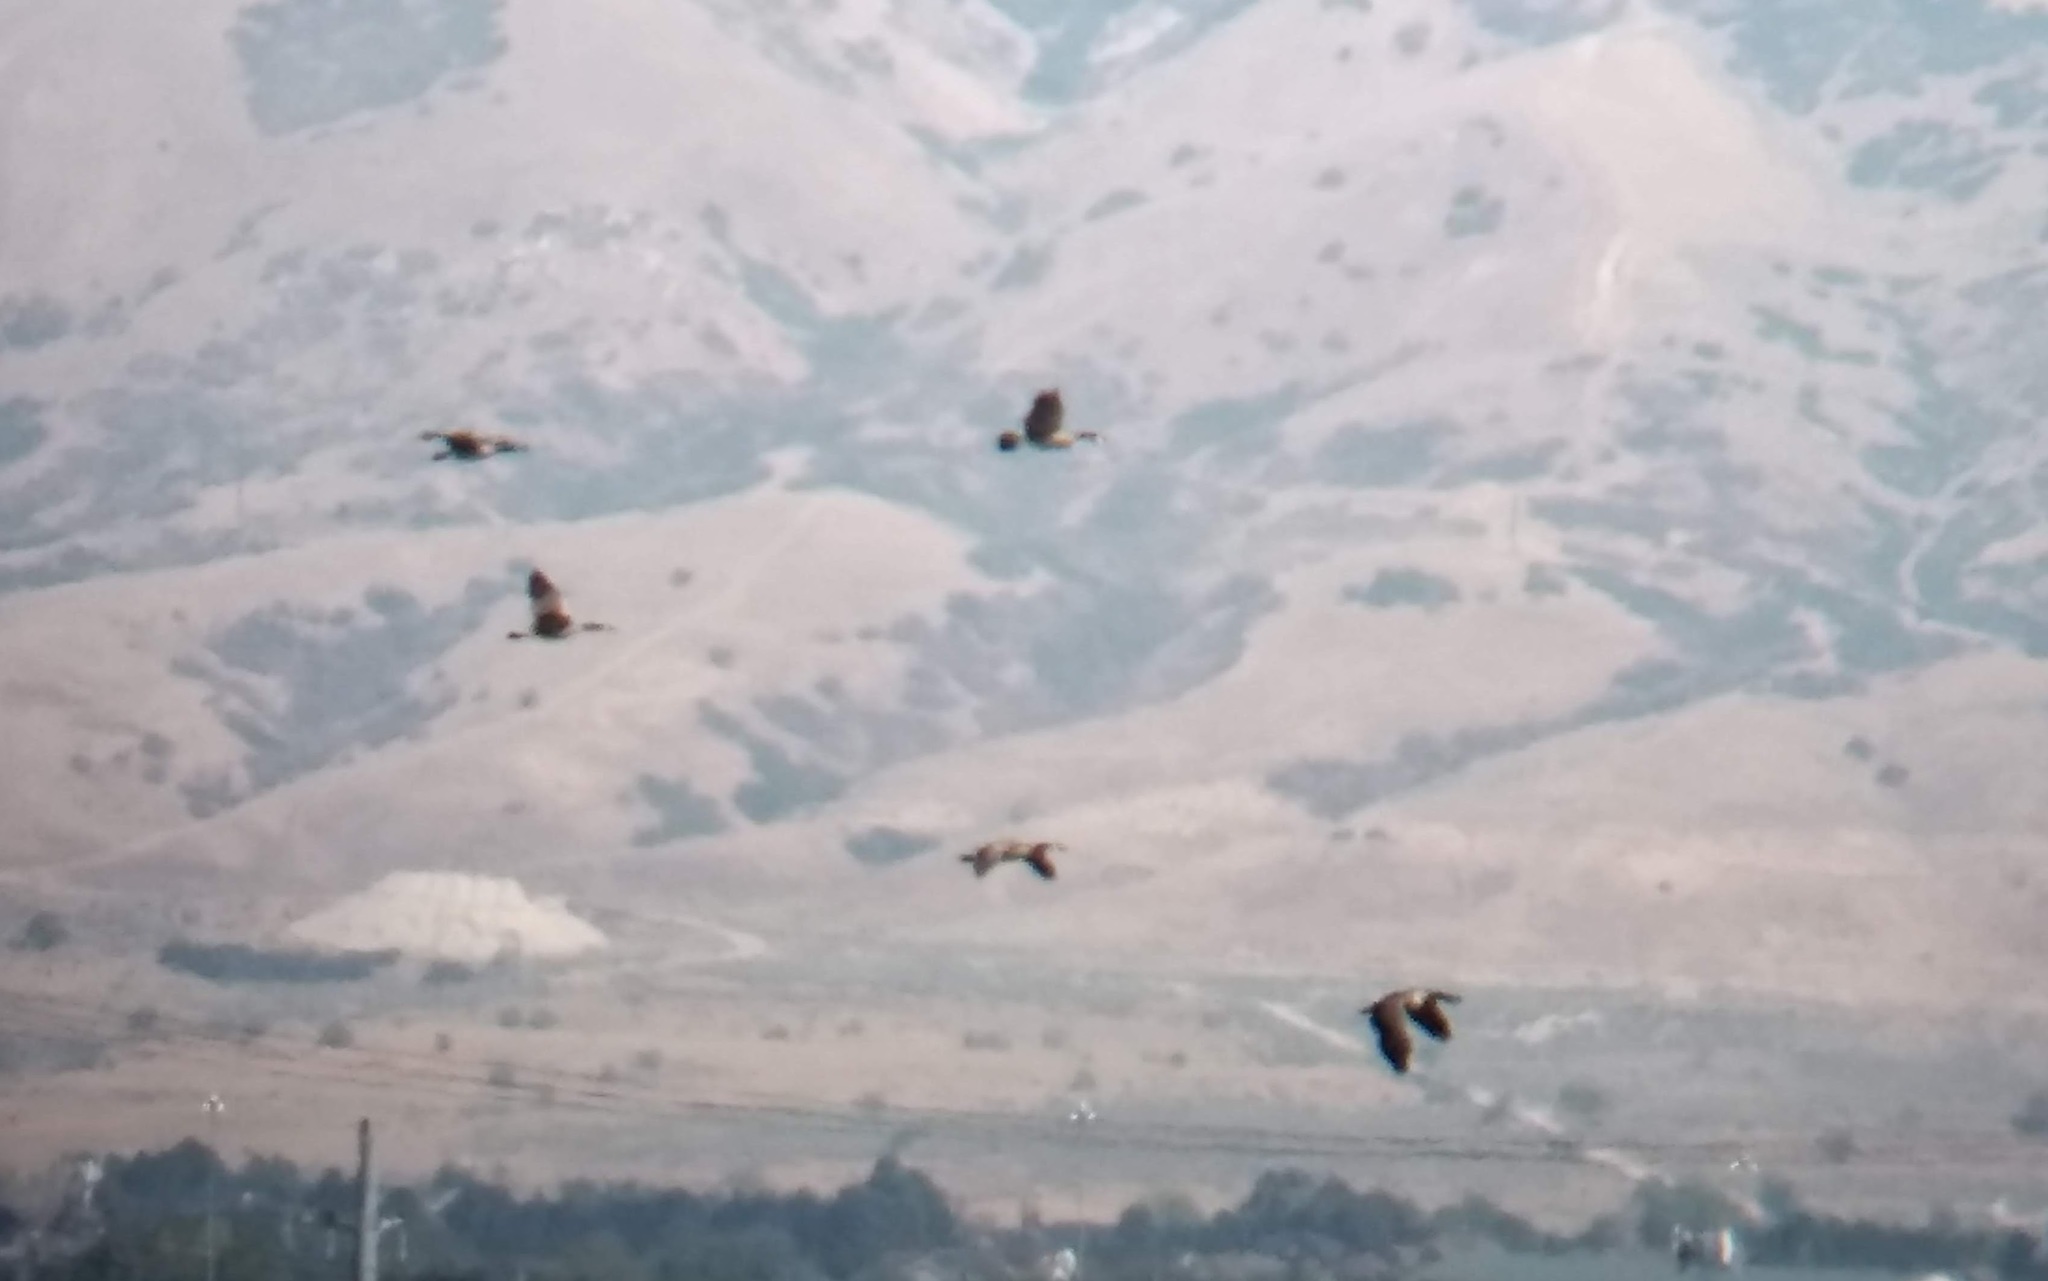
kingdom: Animalia
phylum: Chordata
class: Aves
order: Anseriformes
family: Anatidae
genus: Branta
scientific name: Branta canadensis
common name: Canada goose
